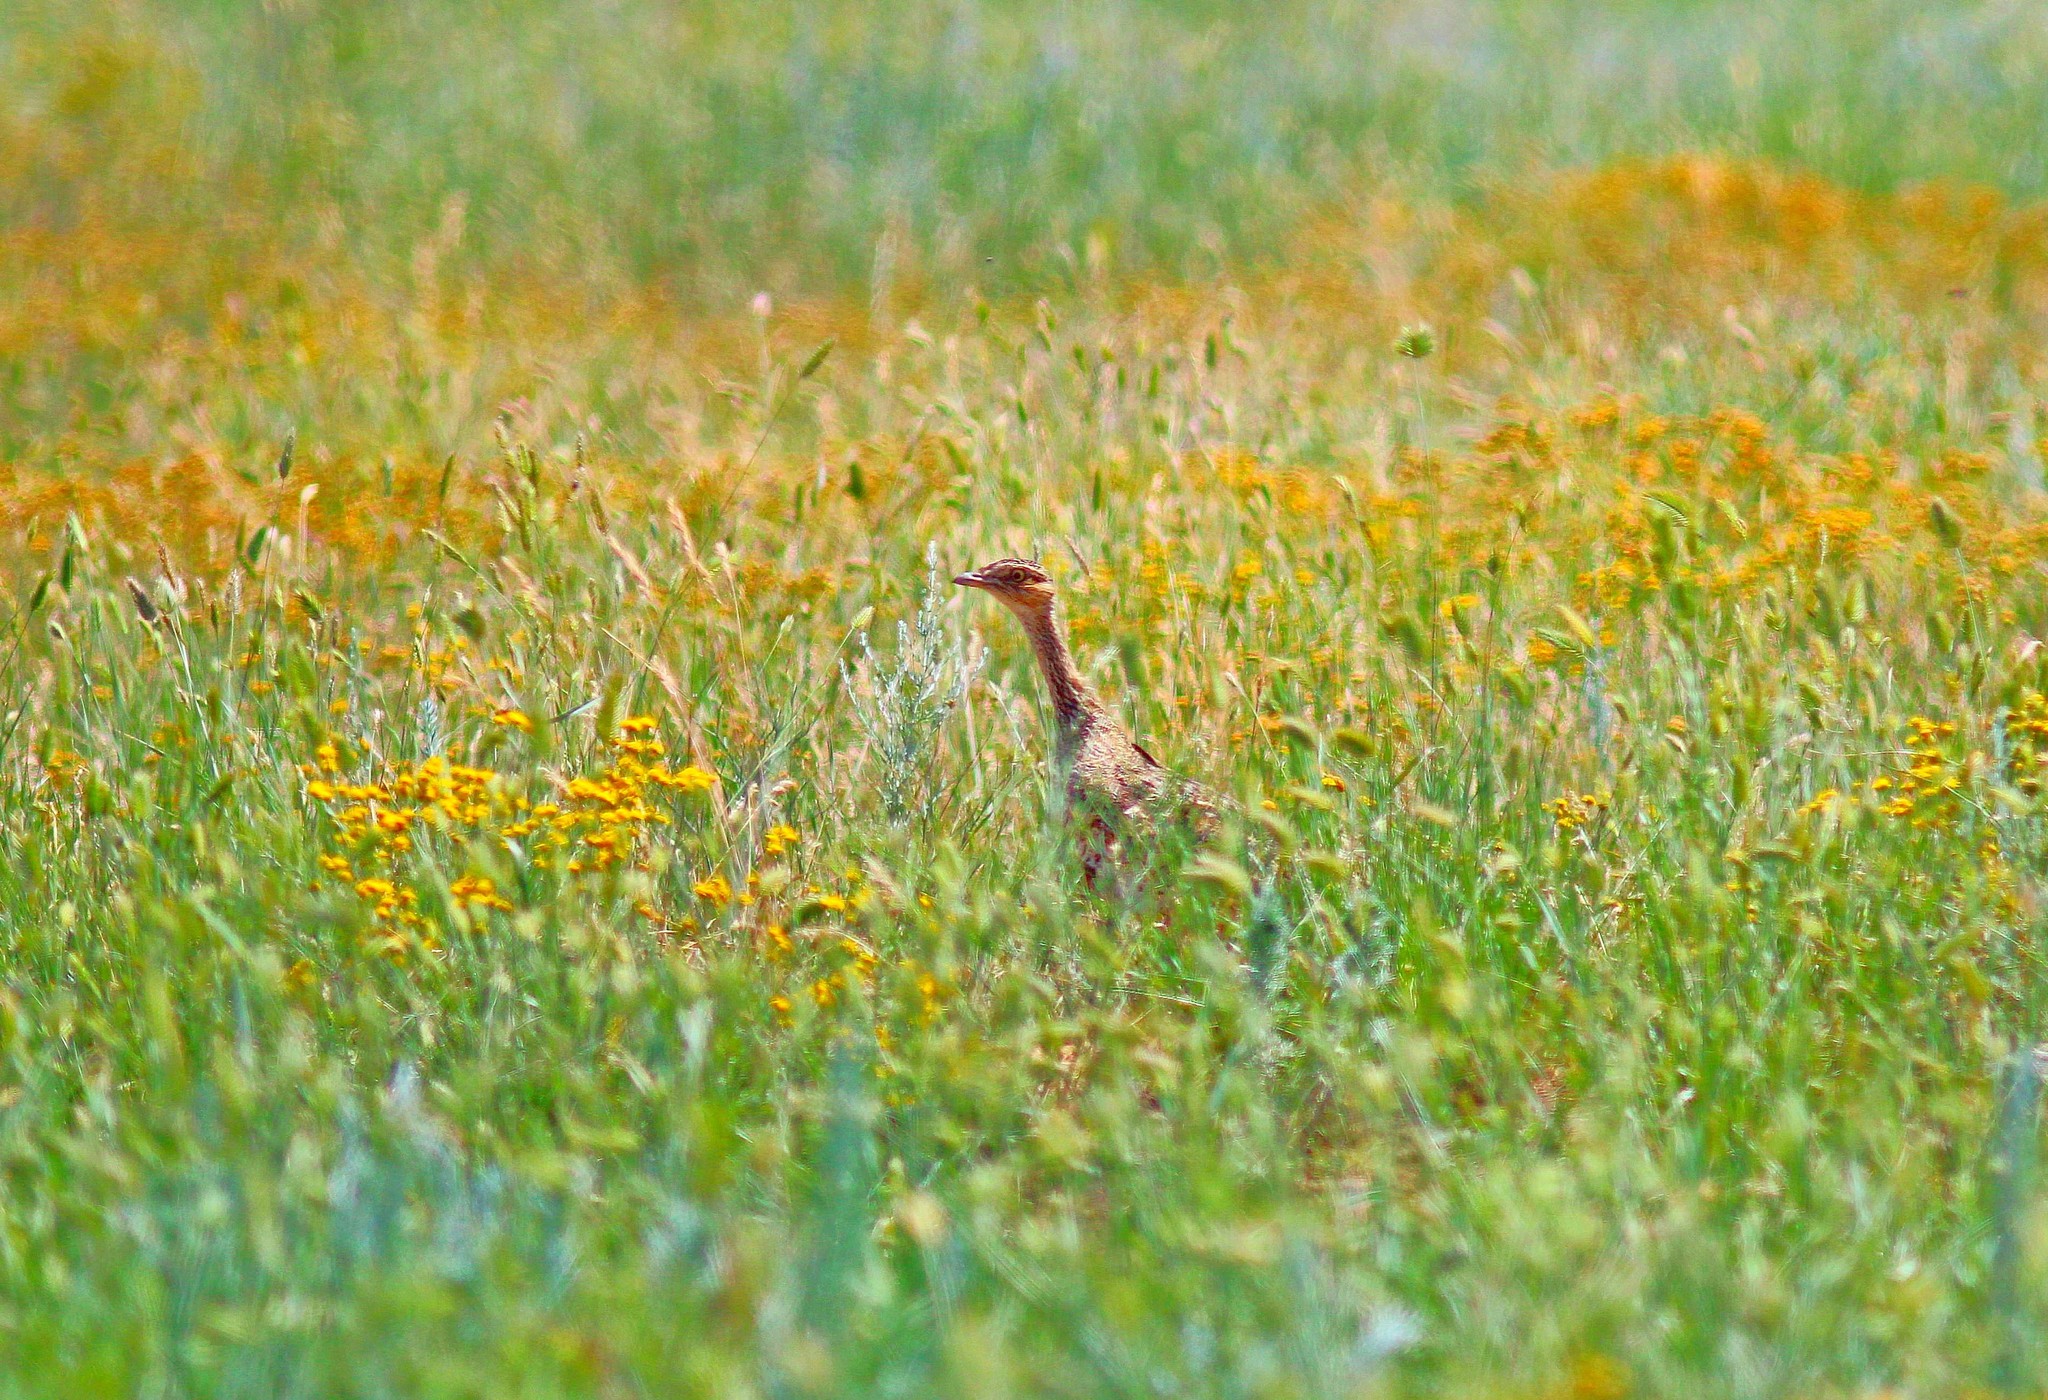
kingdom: Animalia
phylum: Chordata
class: Aves
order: Otidiformes
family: Otididae
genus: Tetrax
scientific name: Tetrax tetrax
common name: Little bustard
